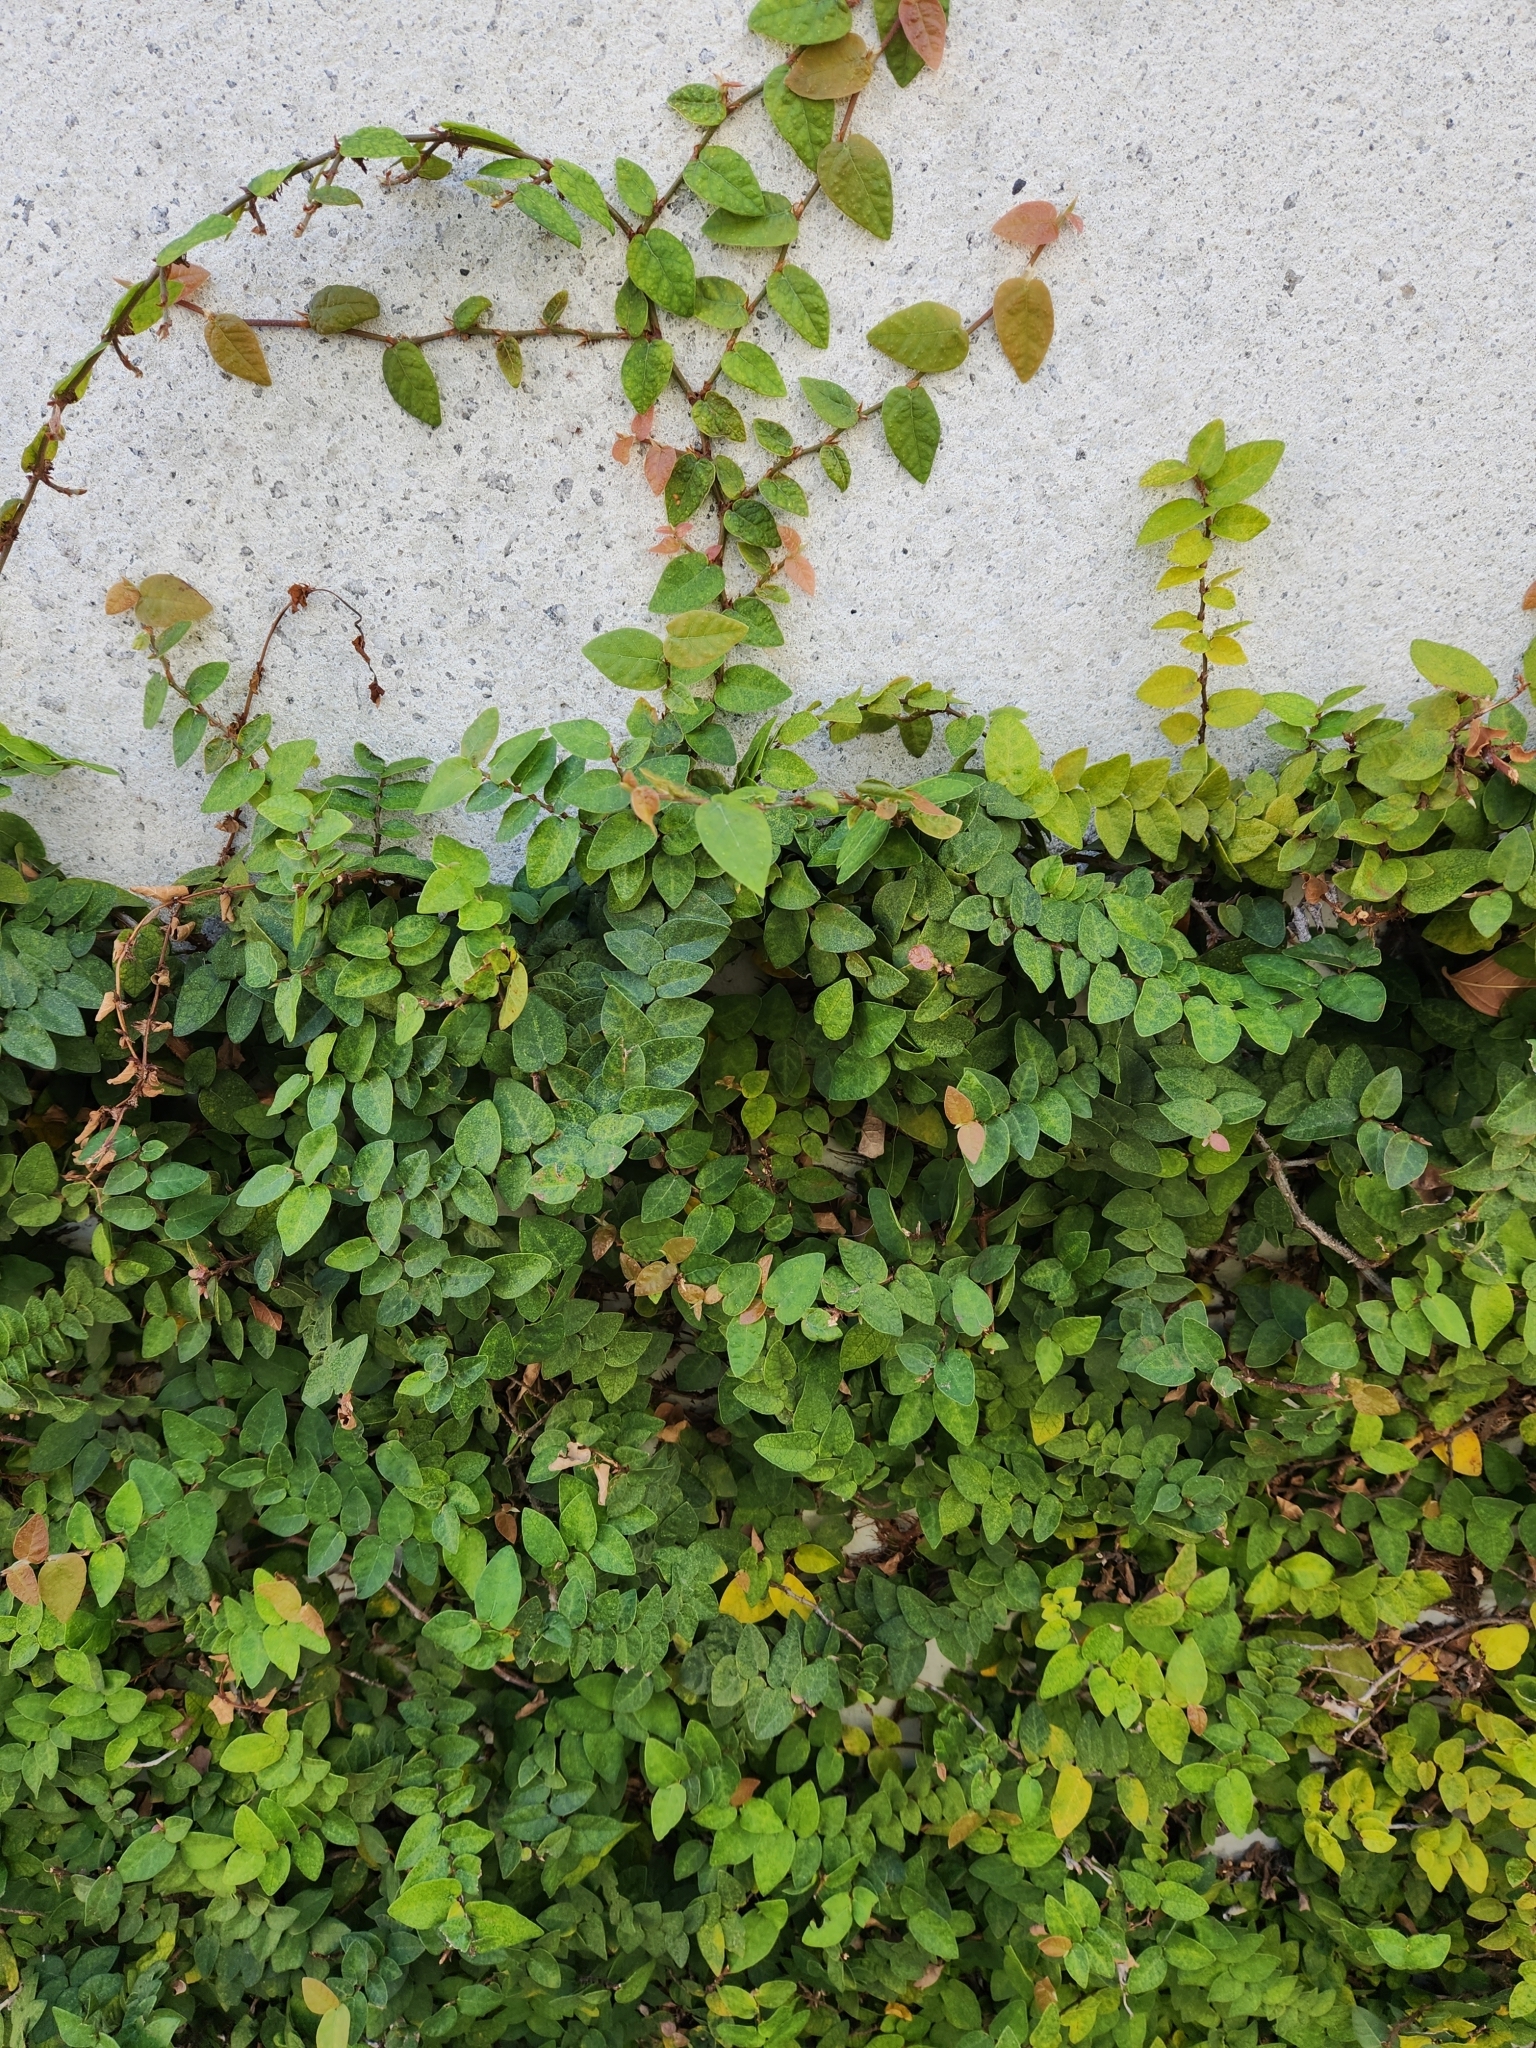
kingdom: Plantae
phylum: Tracheophyta
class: Magnoliopsida
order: Rosales
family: Moraceae
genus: Ficus
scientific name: Ficus pumila
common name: Climbingfig
